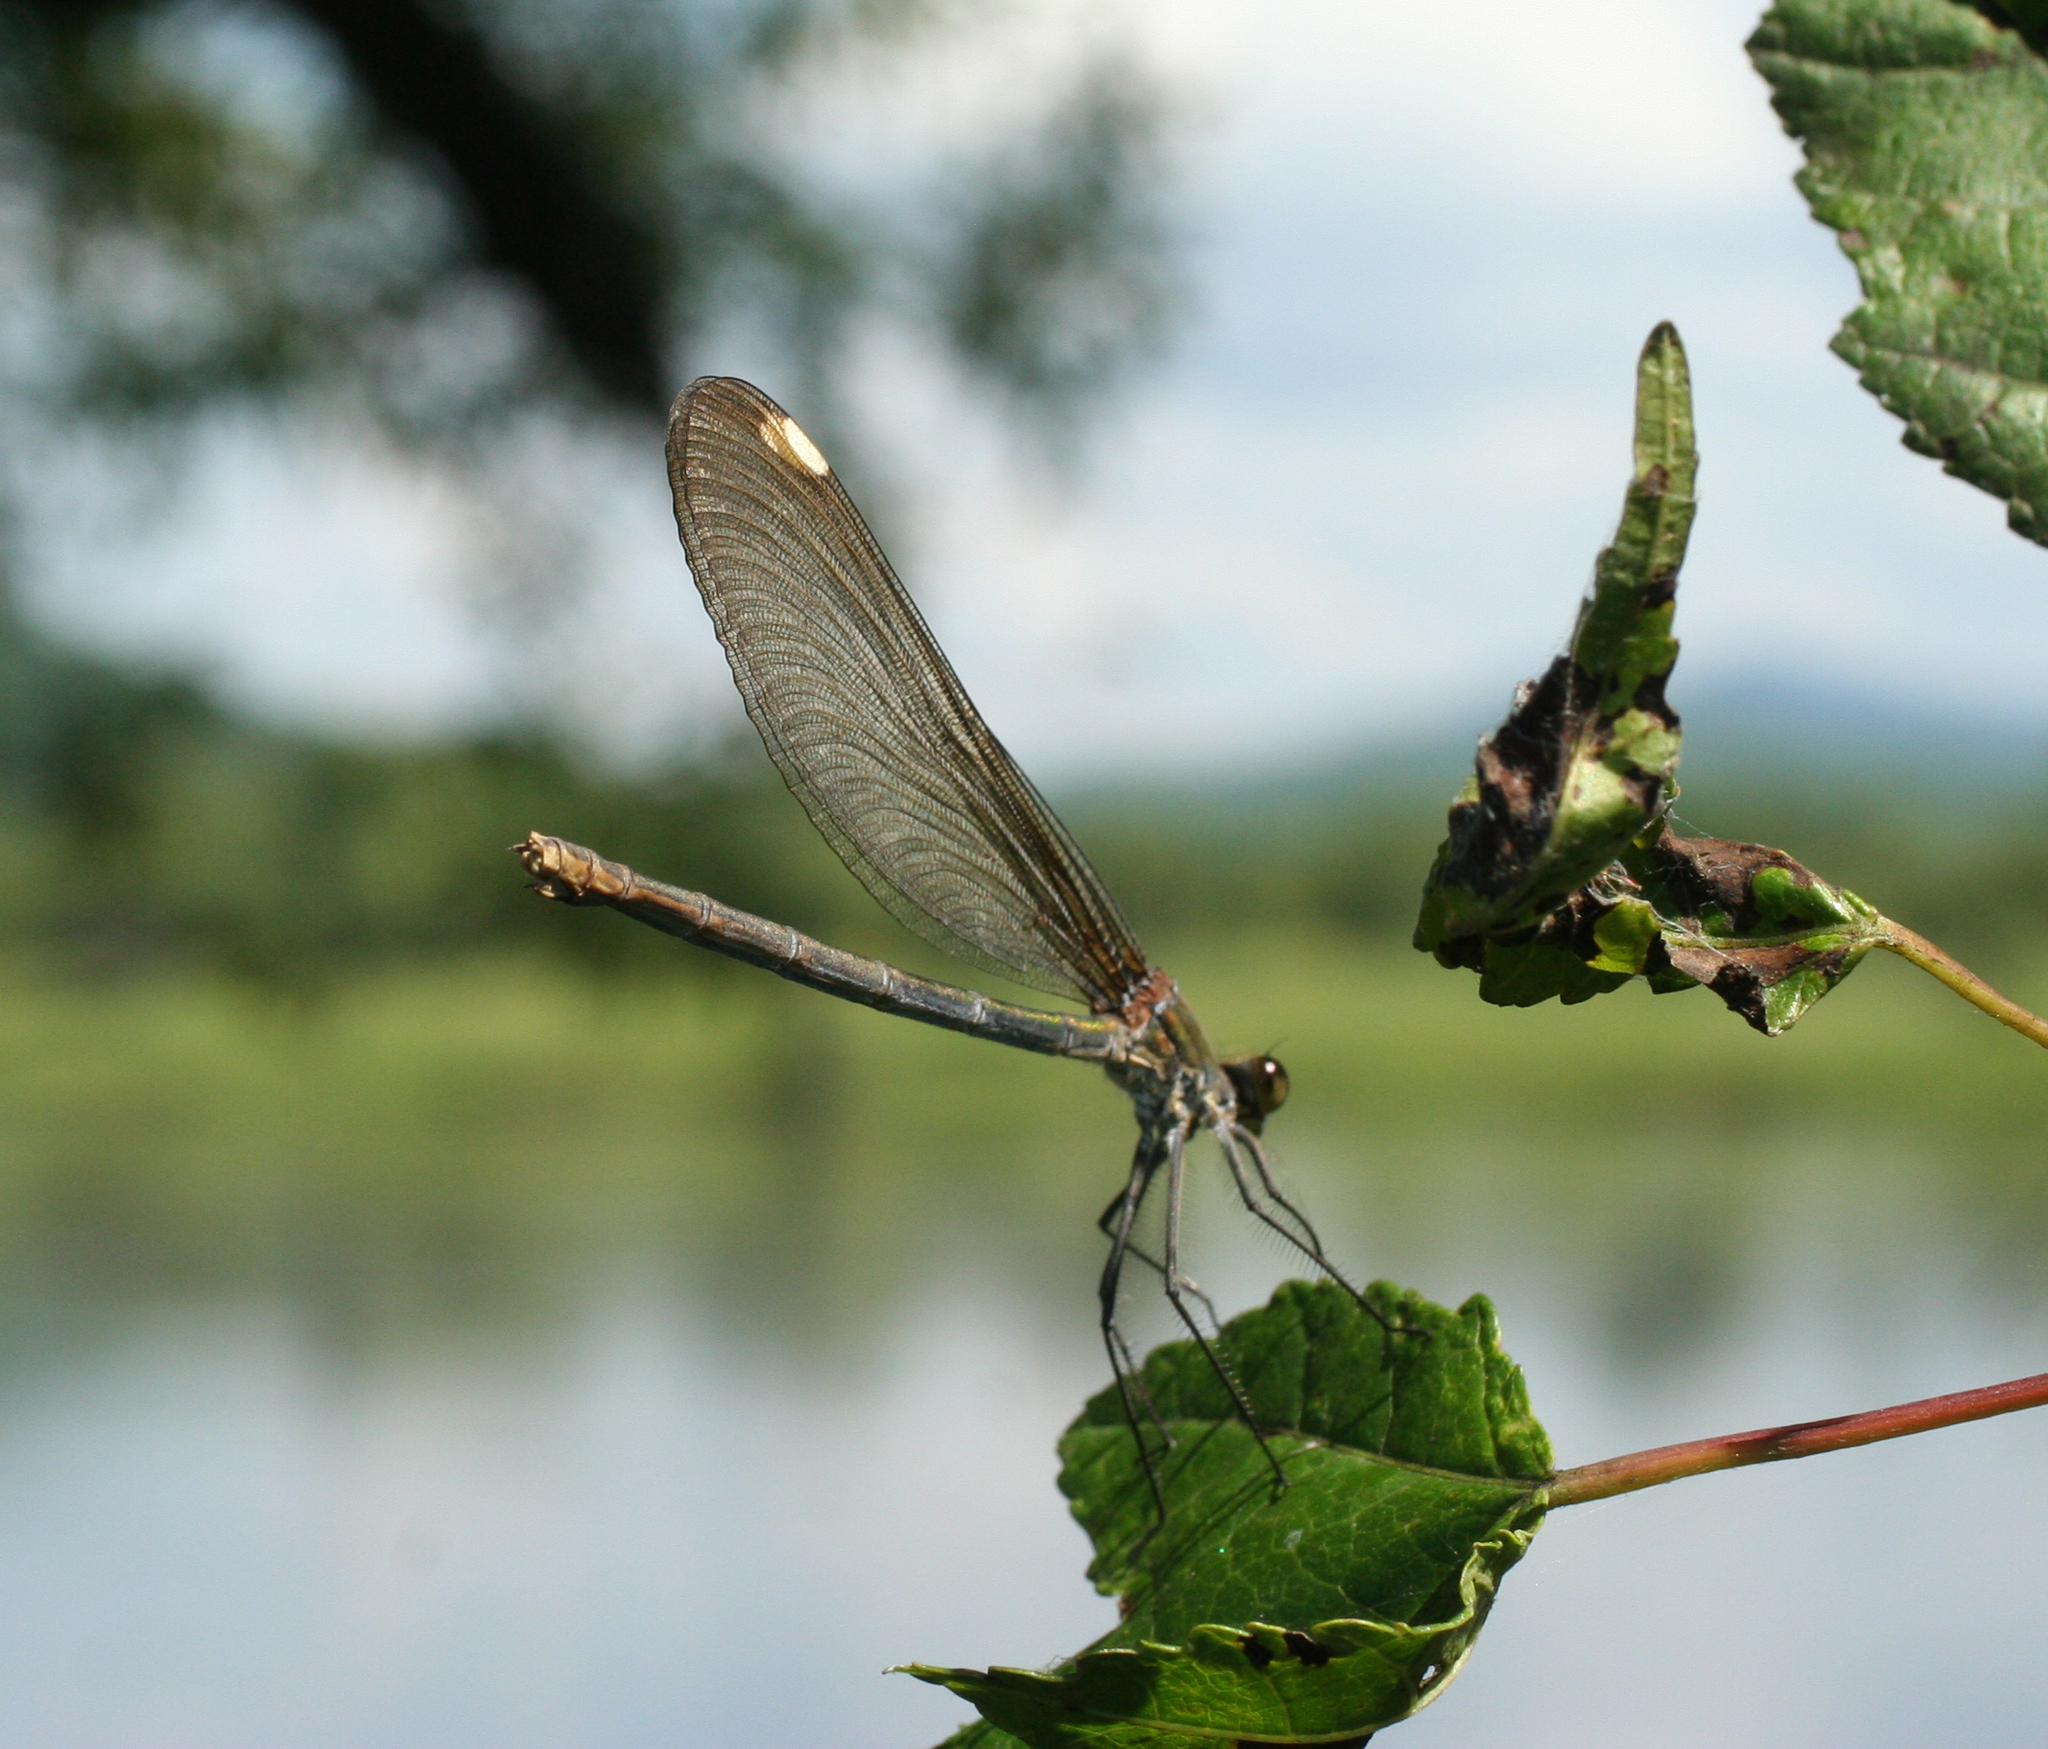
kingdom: Animalia
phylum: Arthropoda
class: Insecta
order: Odonata
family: Calopterygidae
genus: Calopteryx
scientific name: Calopteryx japonica
